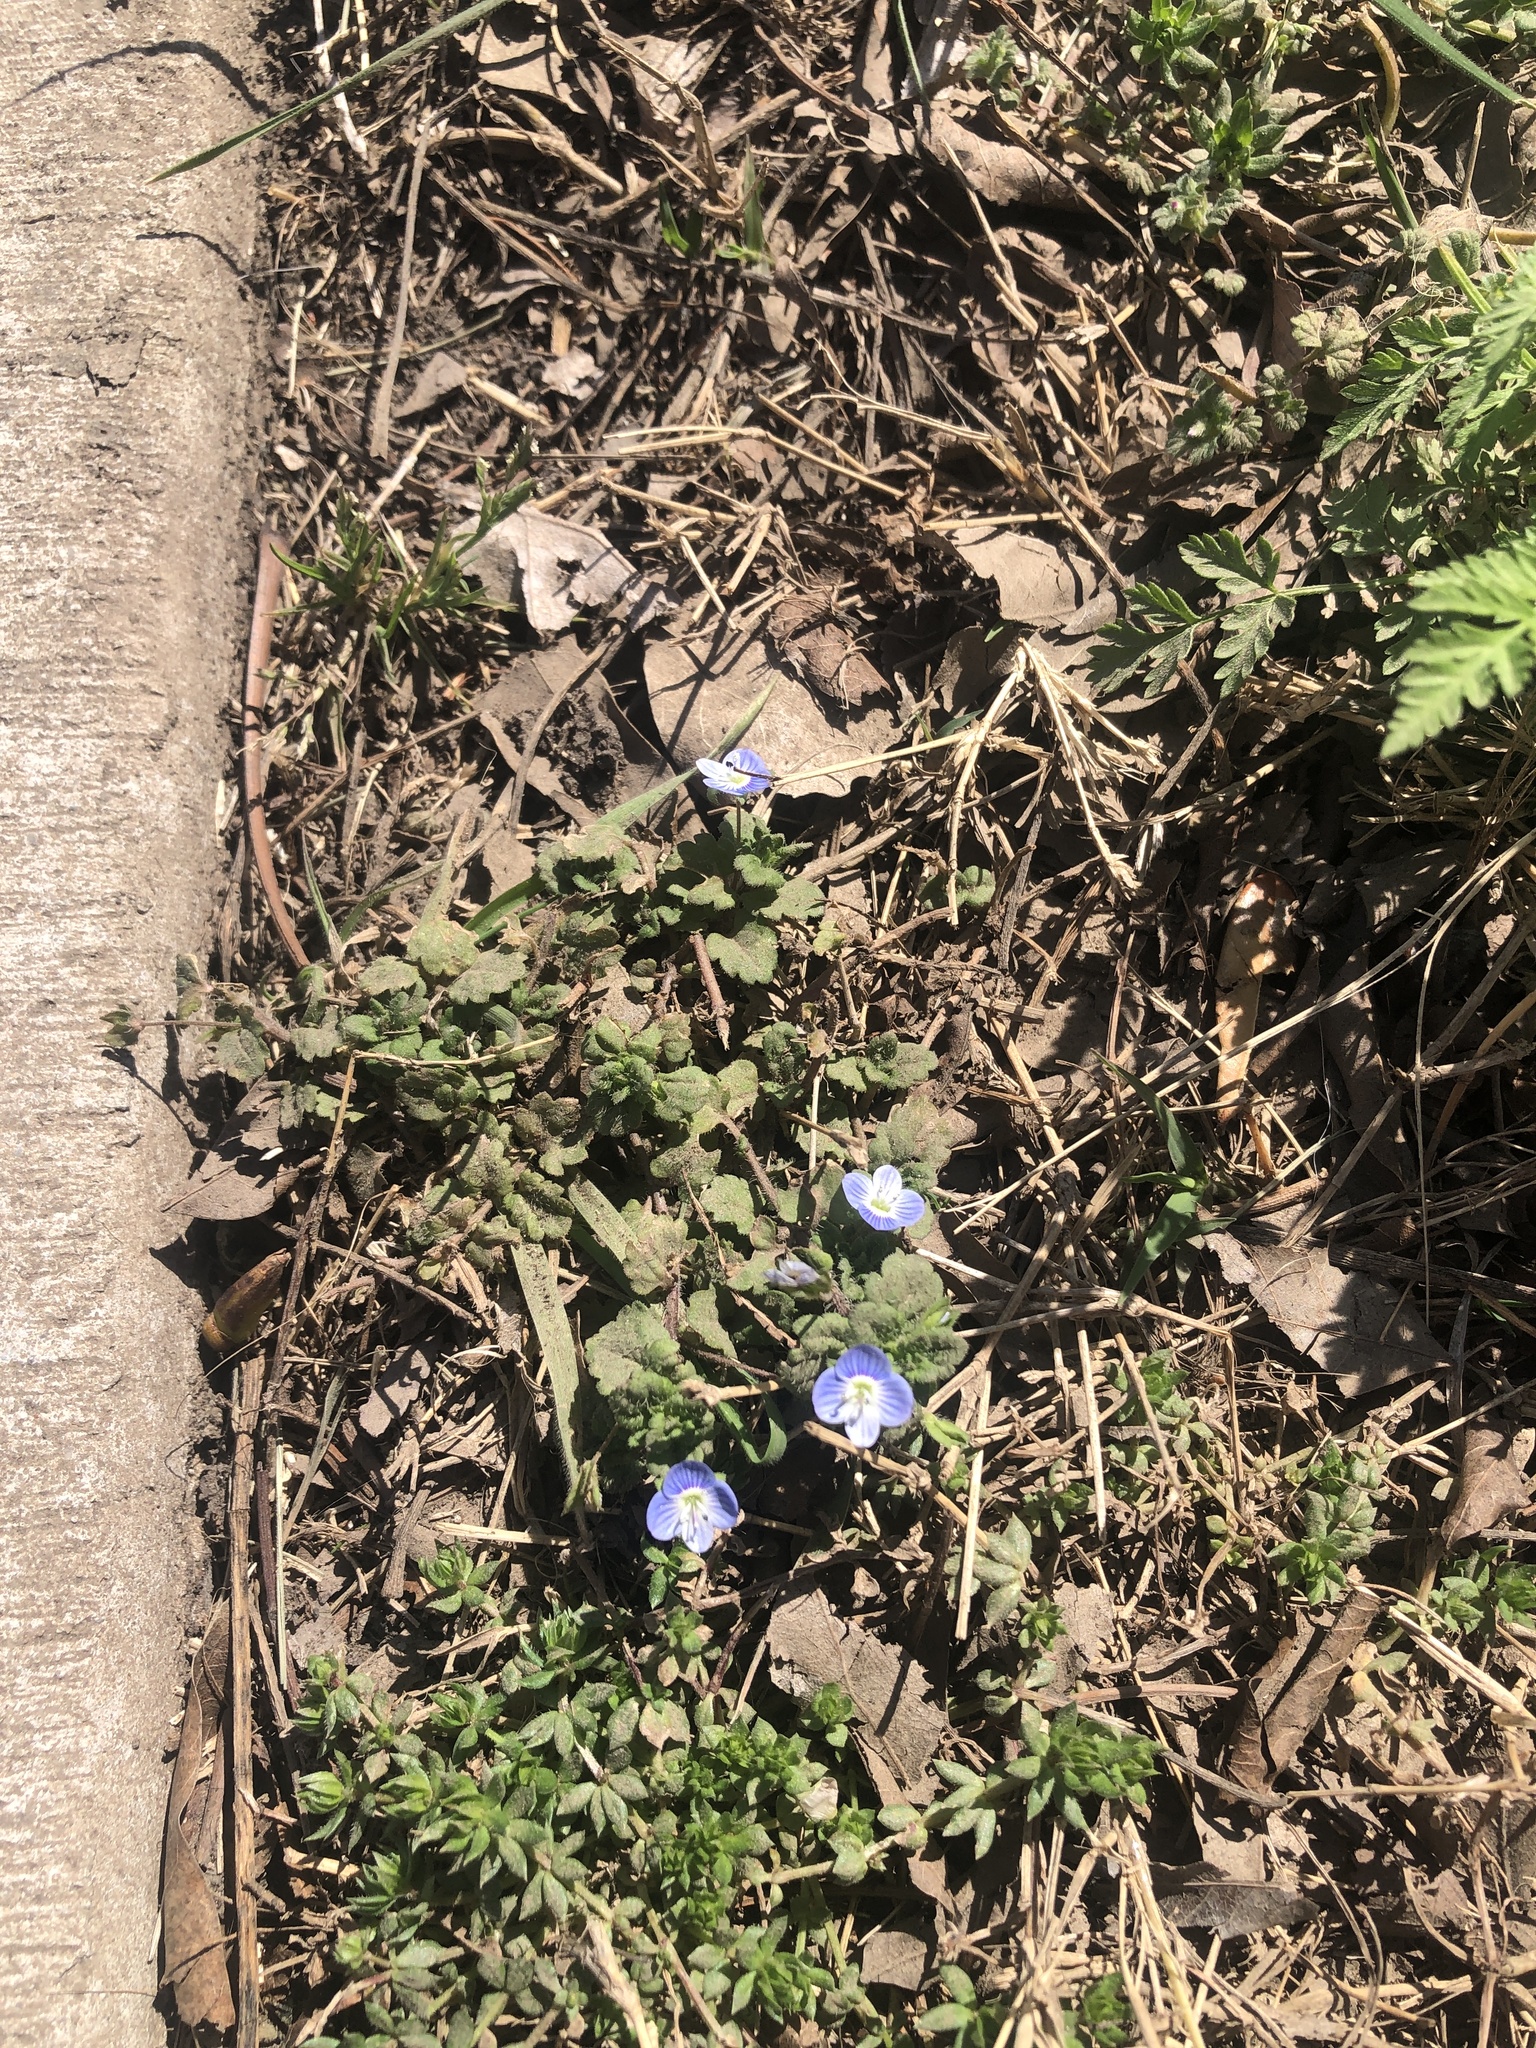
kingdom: Plantae
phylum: Tracheophyta
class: Magnoliopsida
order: Lamiales
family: Plantaginaceae
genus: Veronica
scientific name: Veronica persica
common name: Common field-speedwell
